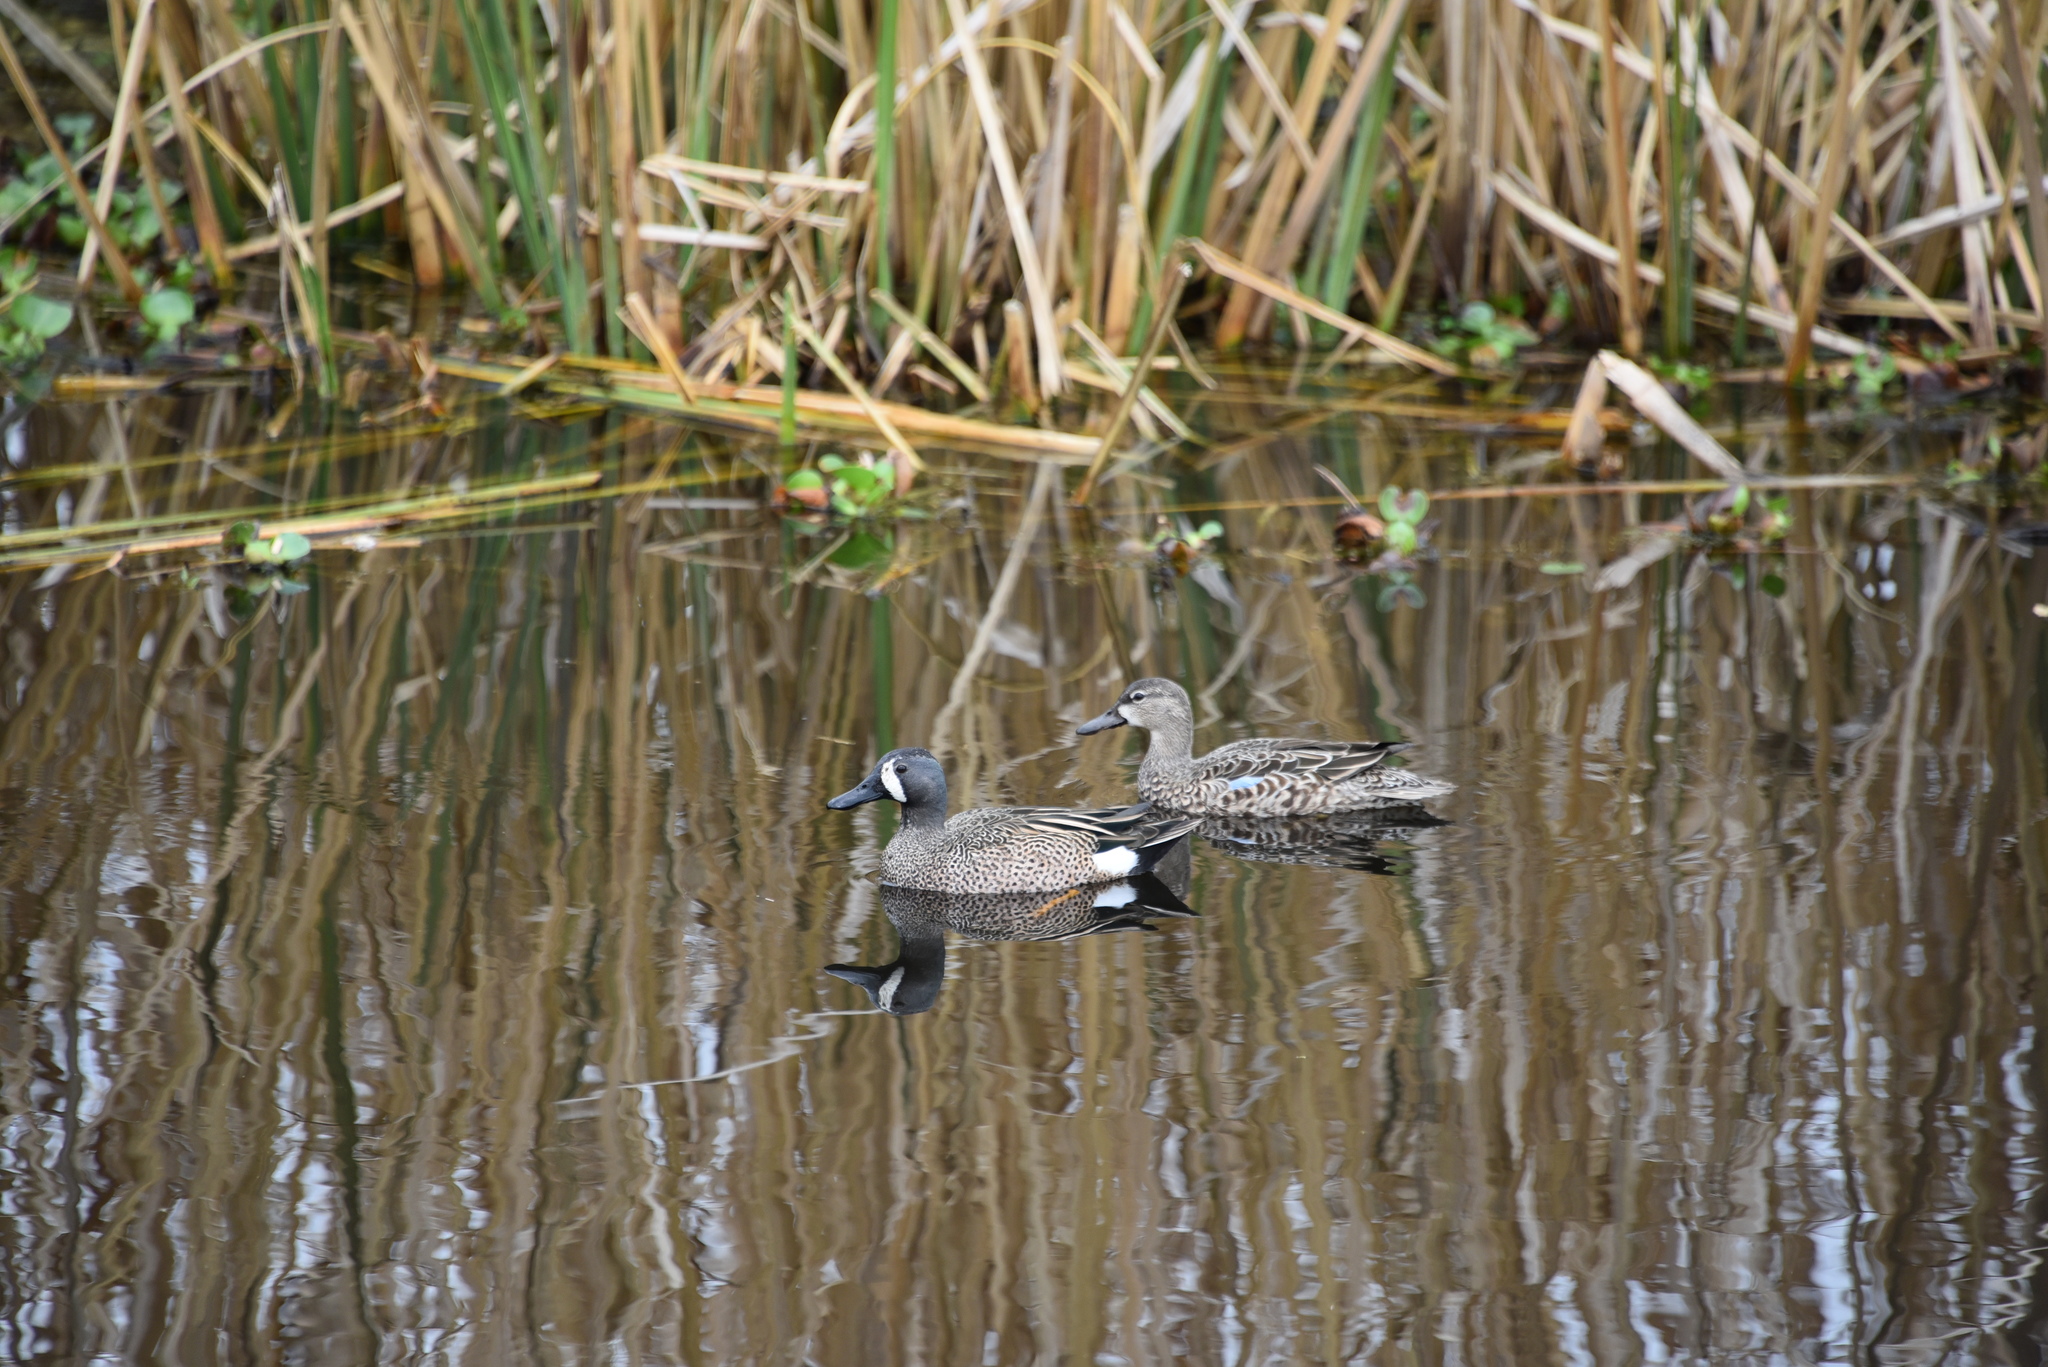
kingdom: Animalia
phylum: Chordata
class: Aves
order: Anseriformes
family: Anatidae
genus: Spatula
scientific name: Spatula discors
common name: Blue-winged teal
